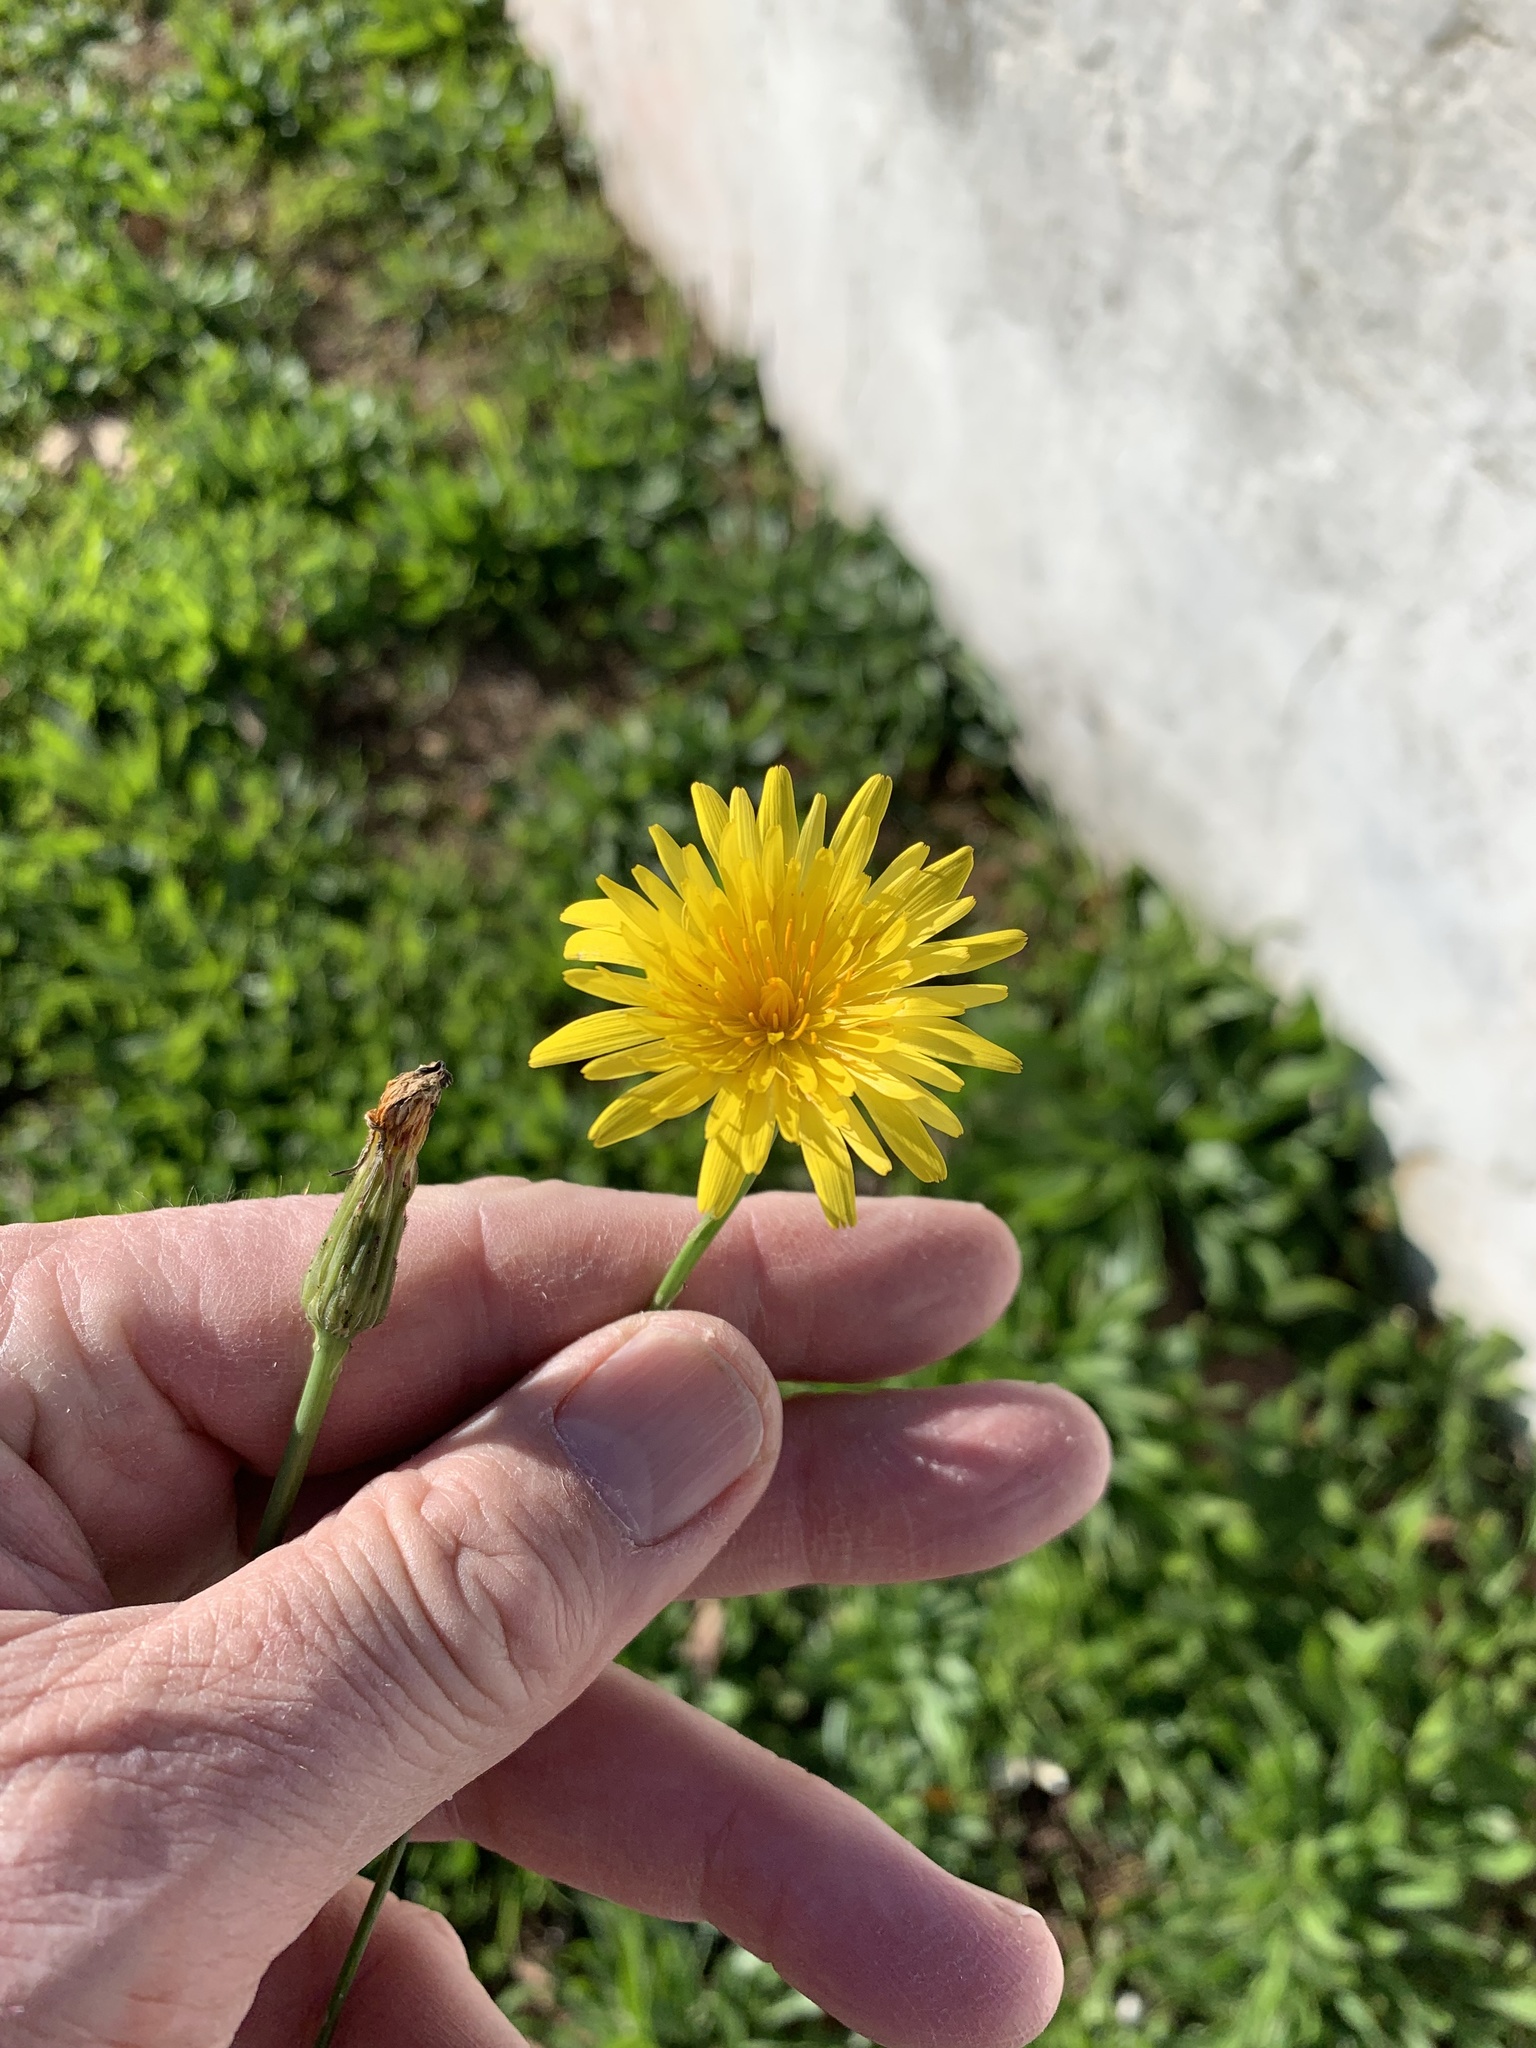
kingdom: Plantae
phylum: Tracheophyta
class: Magnoliopsida
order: Asterales
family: Asteraceae
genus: Hypochaeris
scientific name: Hypochaeris radicata
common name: Flatweed
